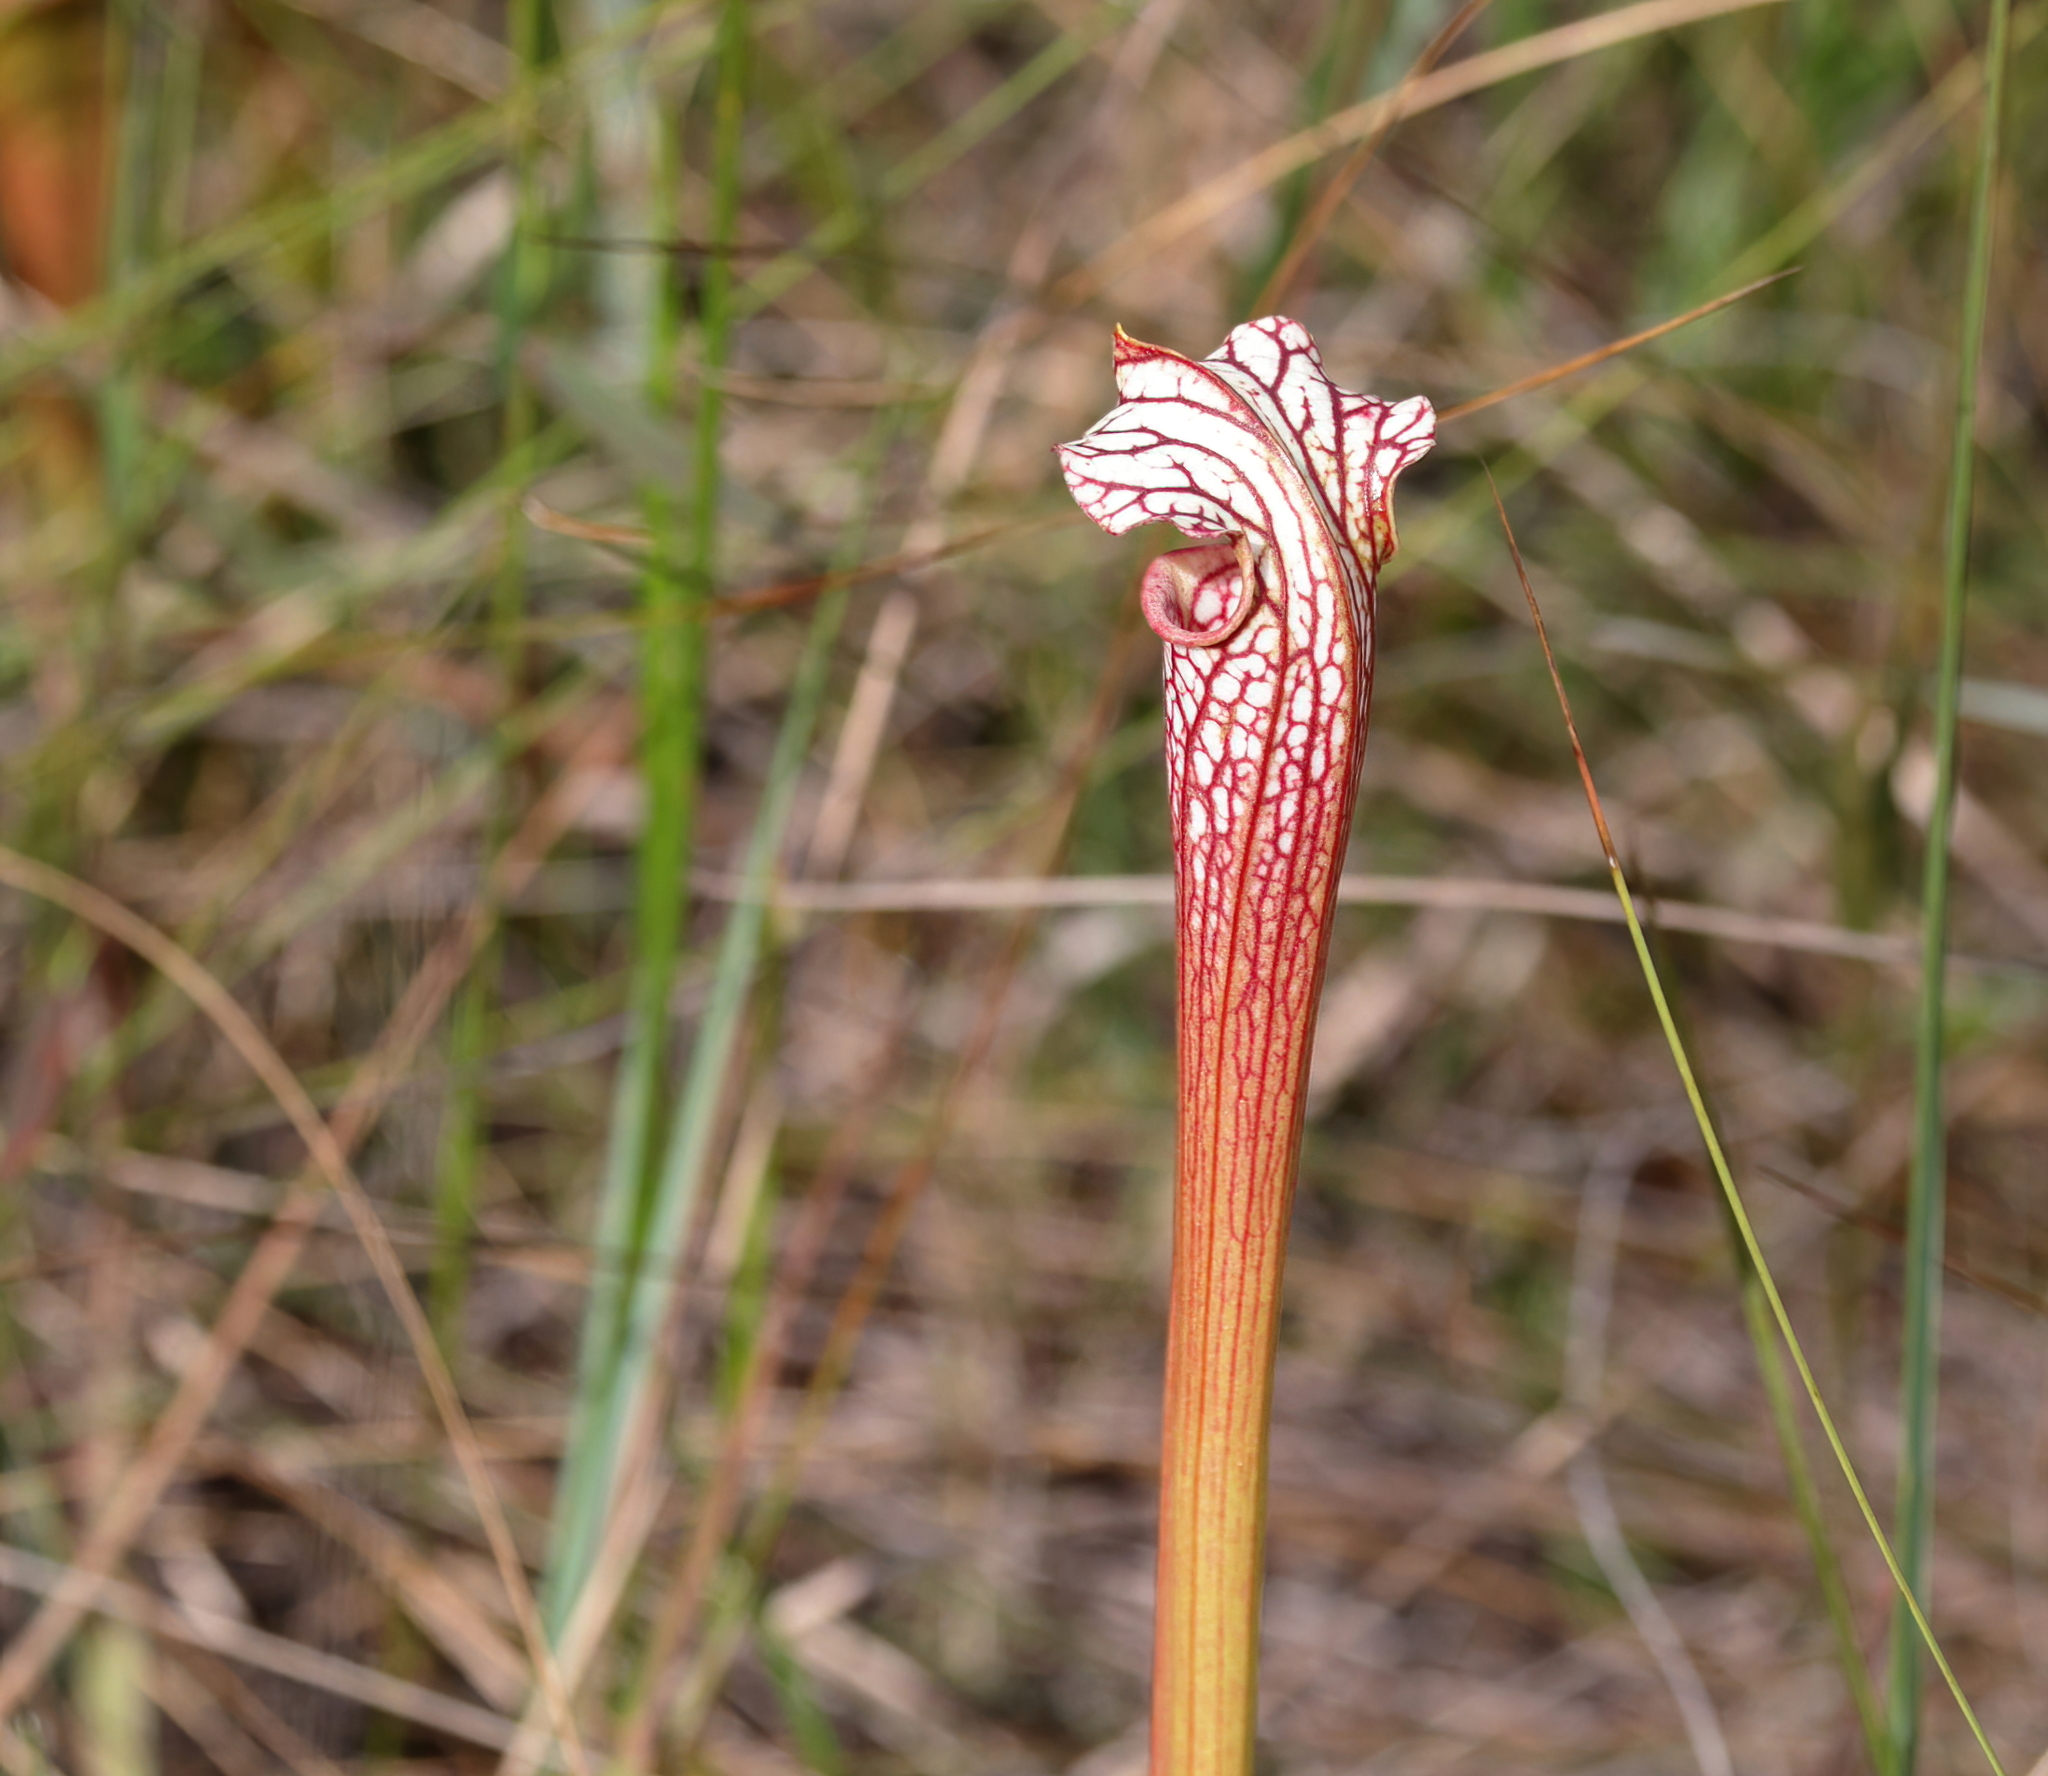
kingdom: Plantae
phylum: Tracheophyta
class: Magnoliopsida
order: Ericales
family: Sarraceniaceae
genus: Sarracenia
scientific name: Sarracenia areolata
